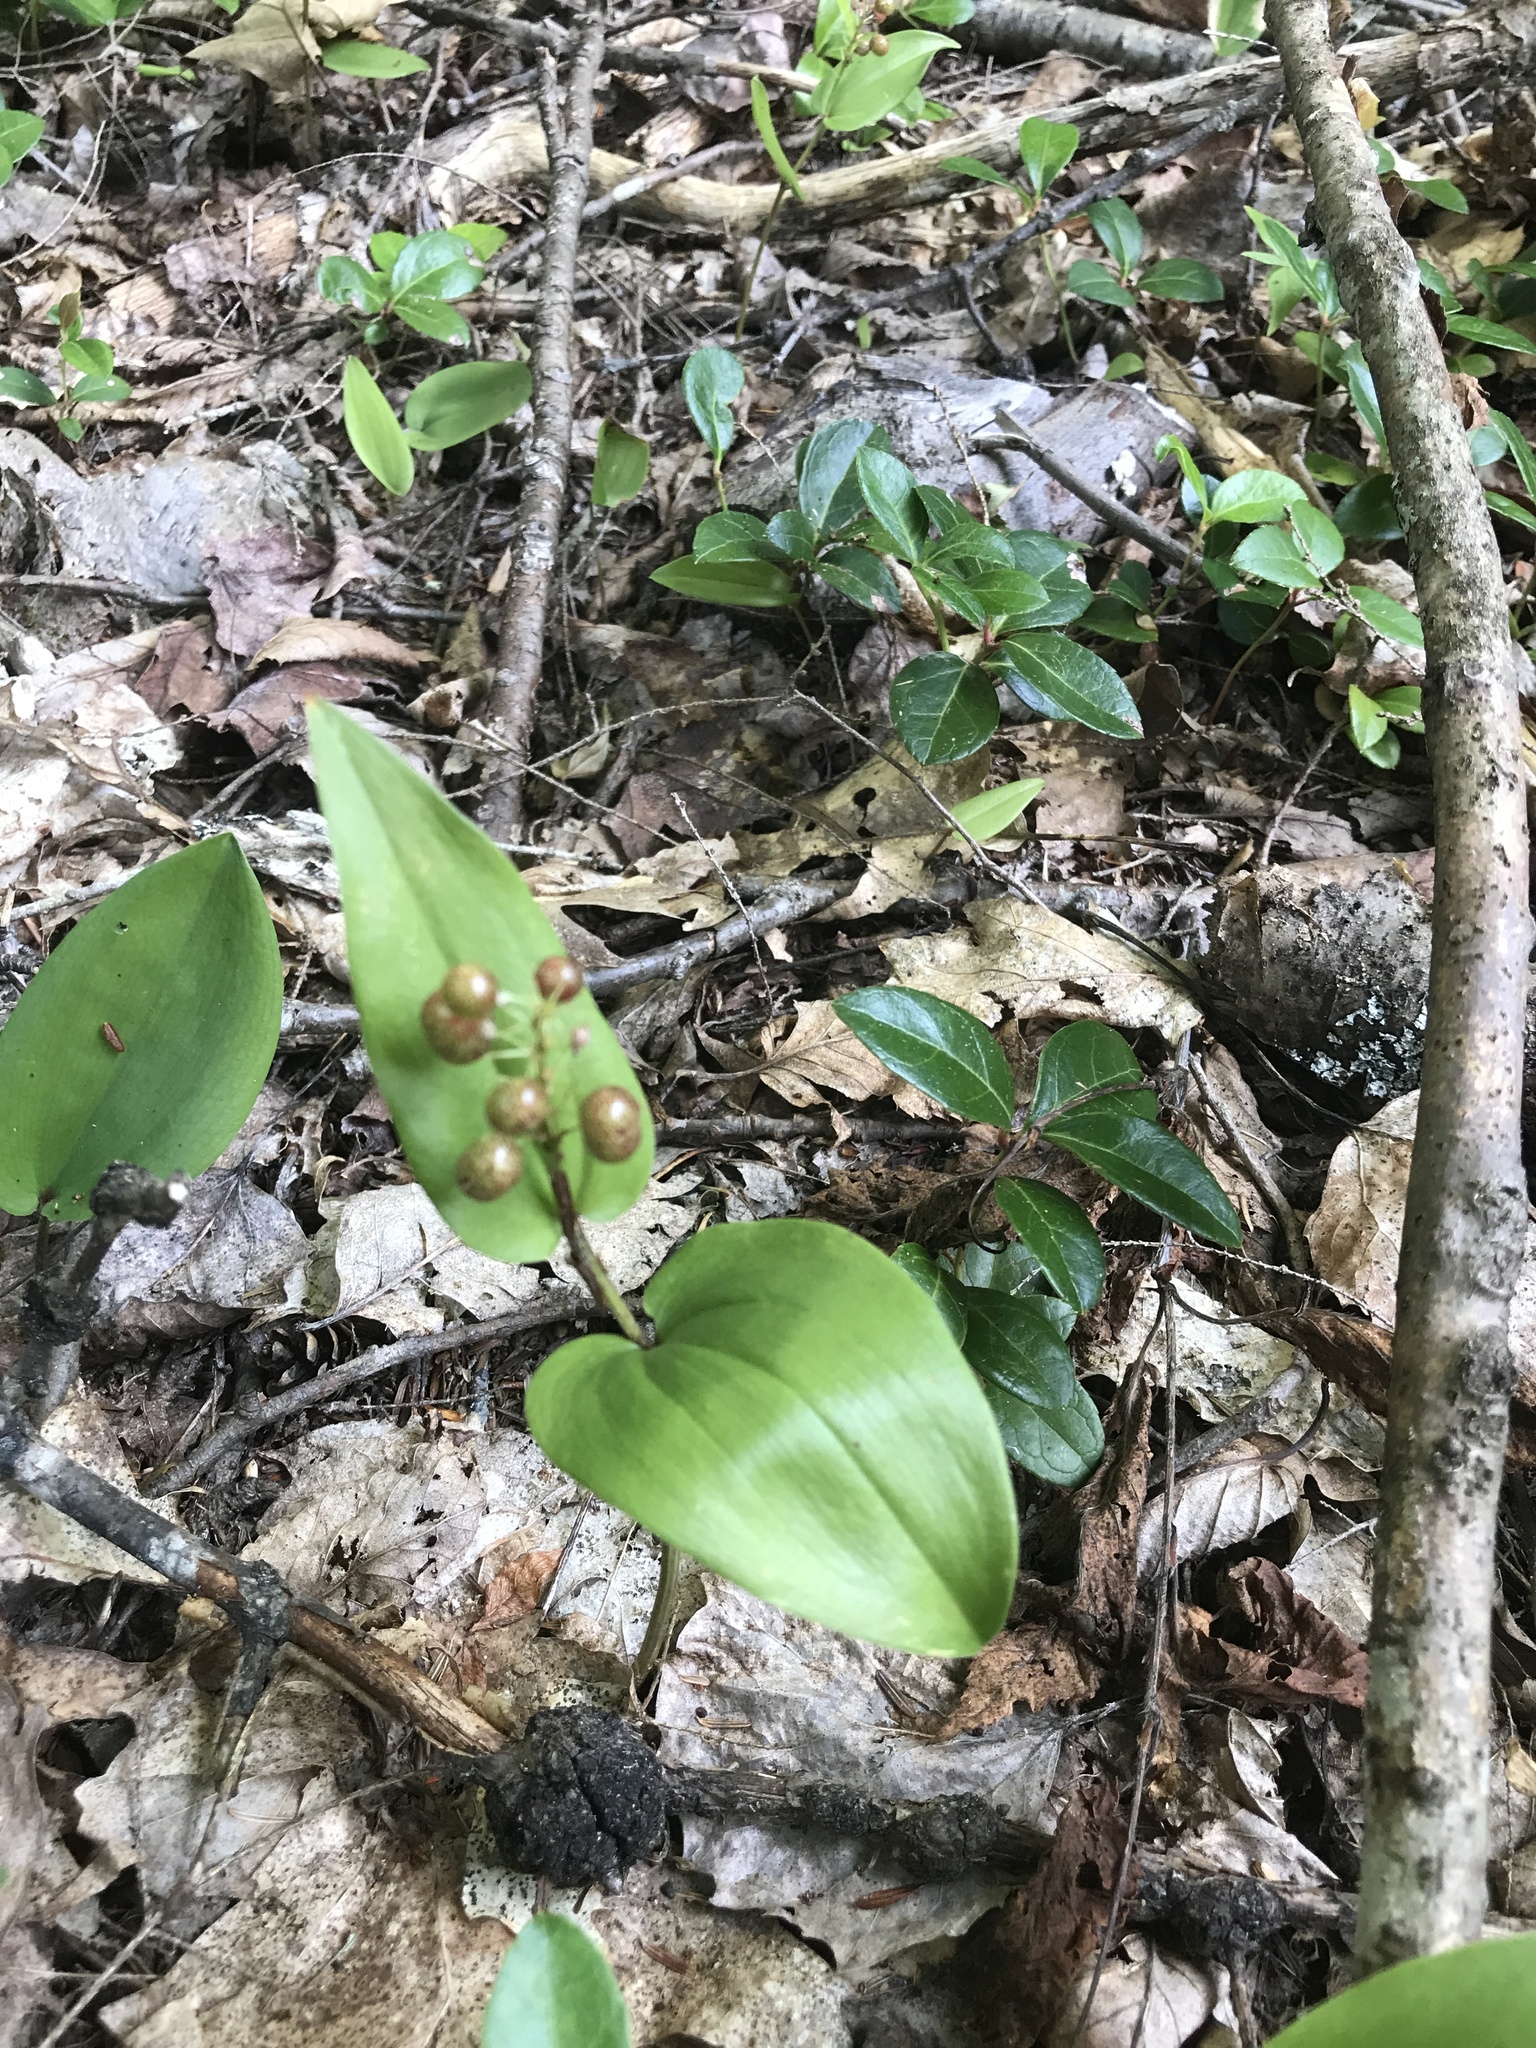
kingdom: Plantae
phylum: Tracheophyta
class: Liliopsida
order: Asparagales
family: Asparagaceae
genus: Maianthemum
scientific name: Maianthemum canadense
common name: False lily-of-the-valley
